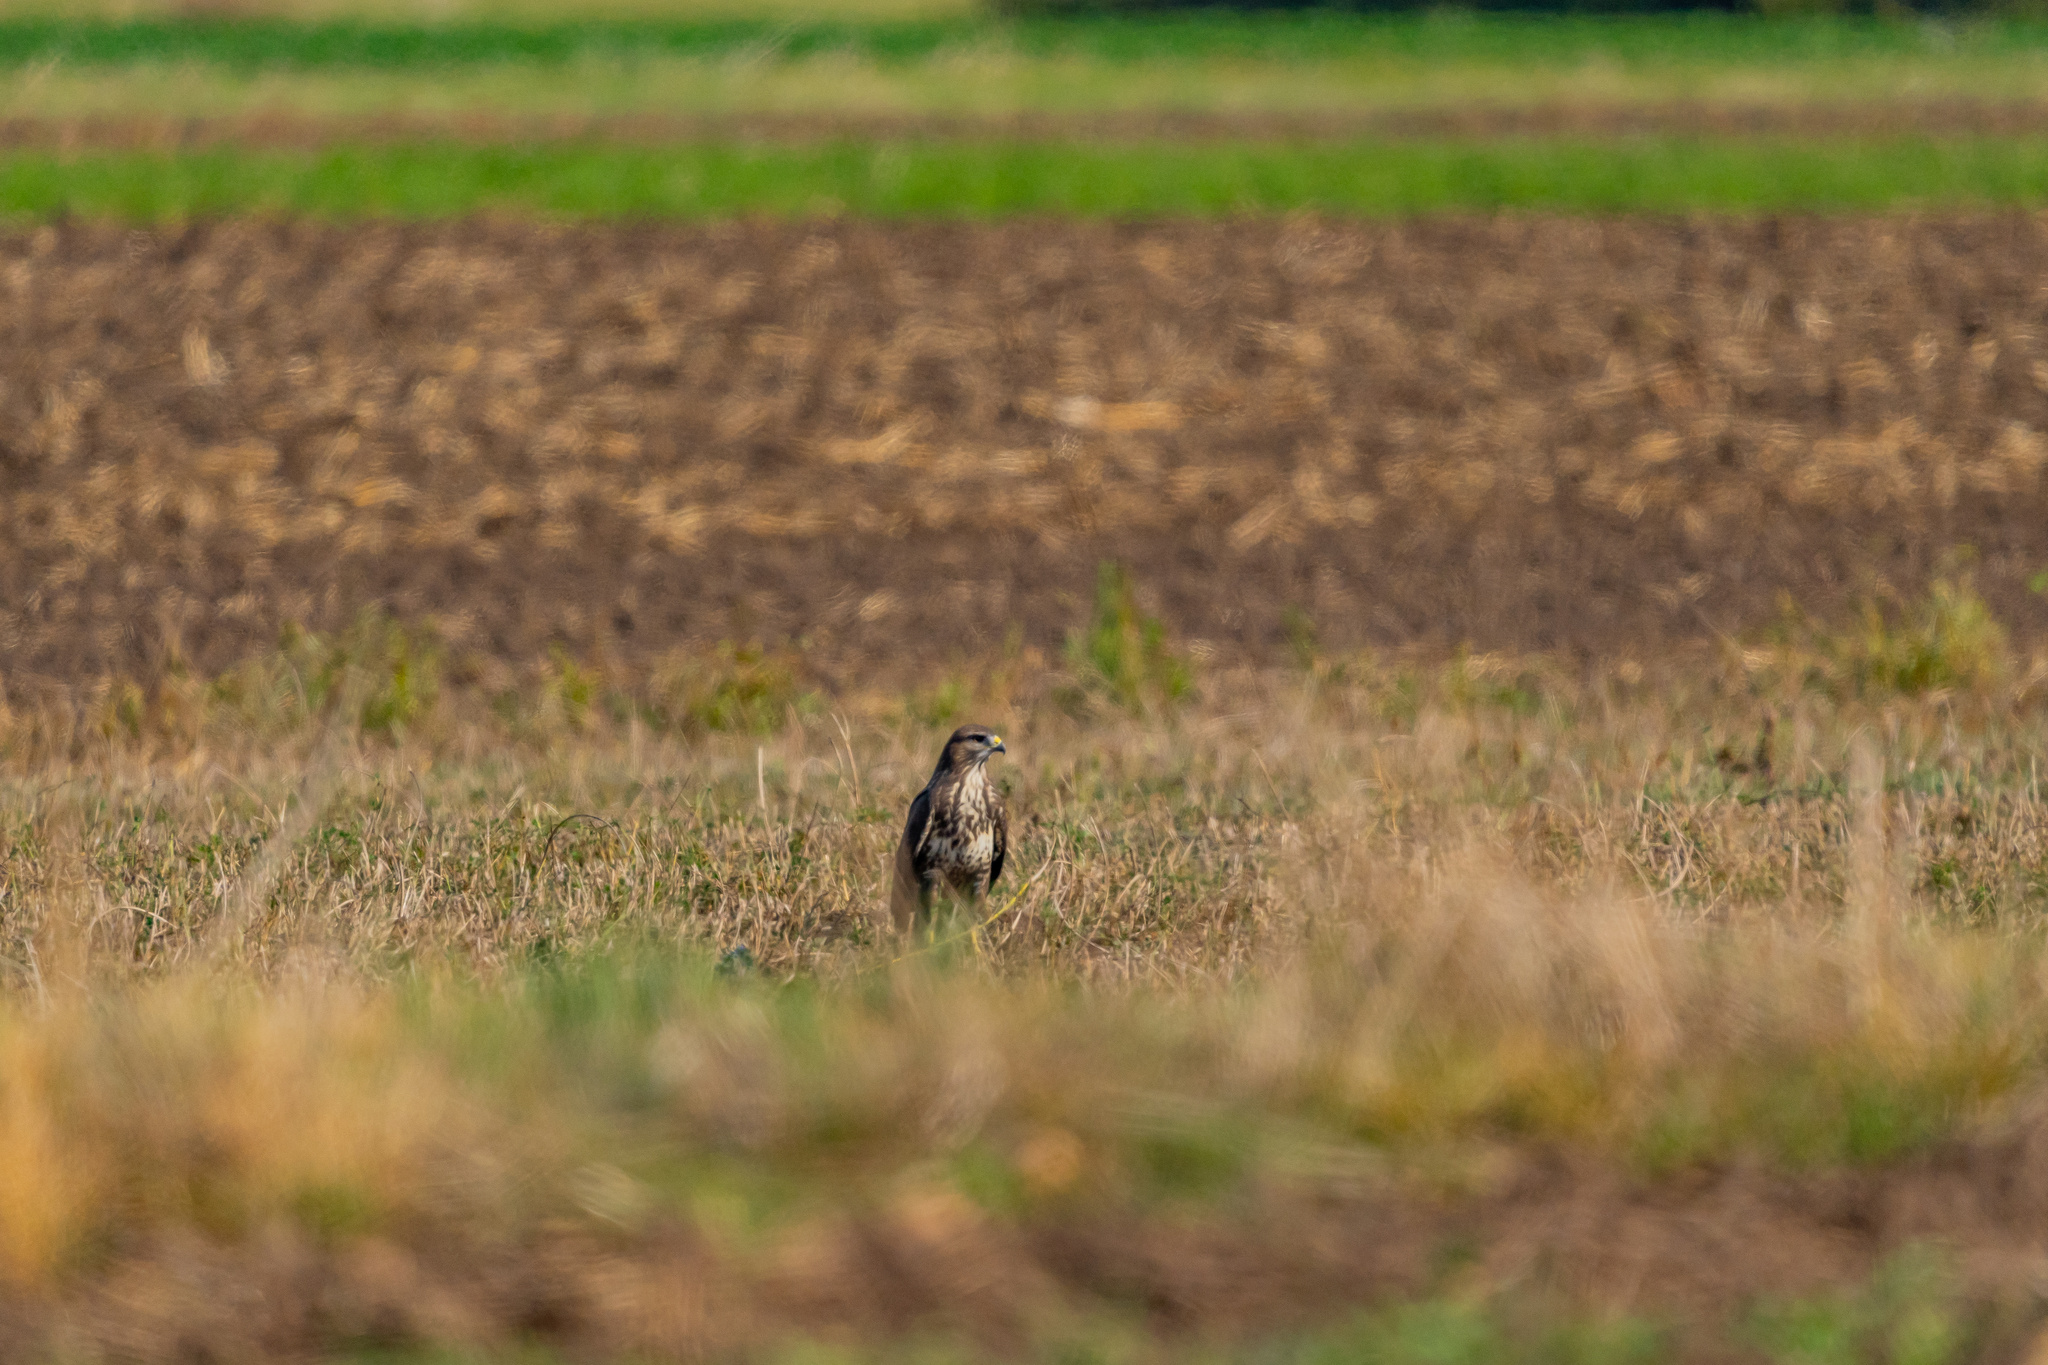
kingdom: Animalia
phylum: Chordata
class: Aves
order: Accipitriformes
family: Accipitridae
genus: Buteo
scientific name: Buteo buteo
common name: Common buzzard
